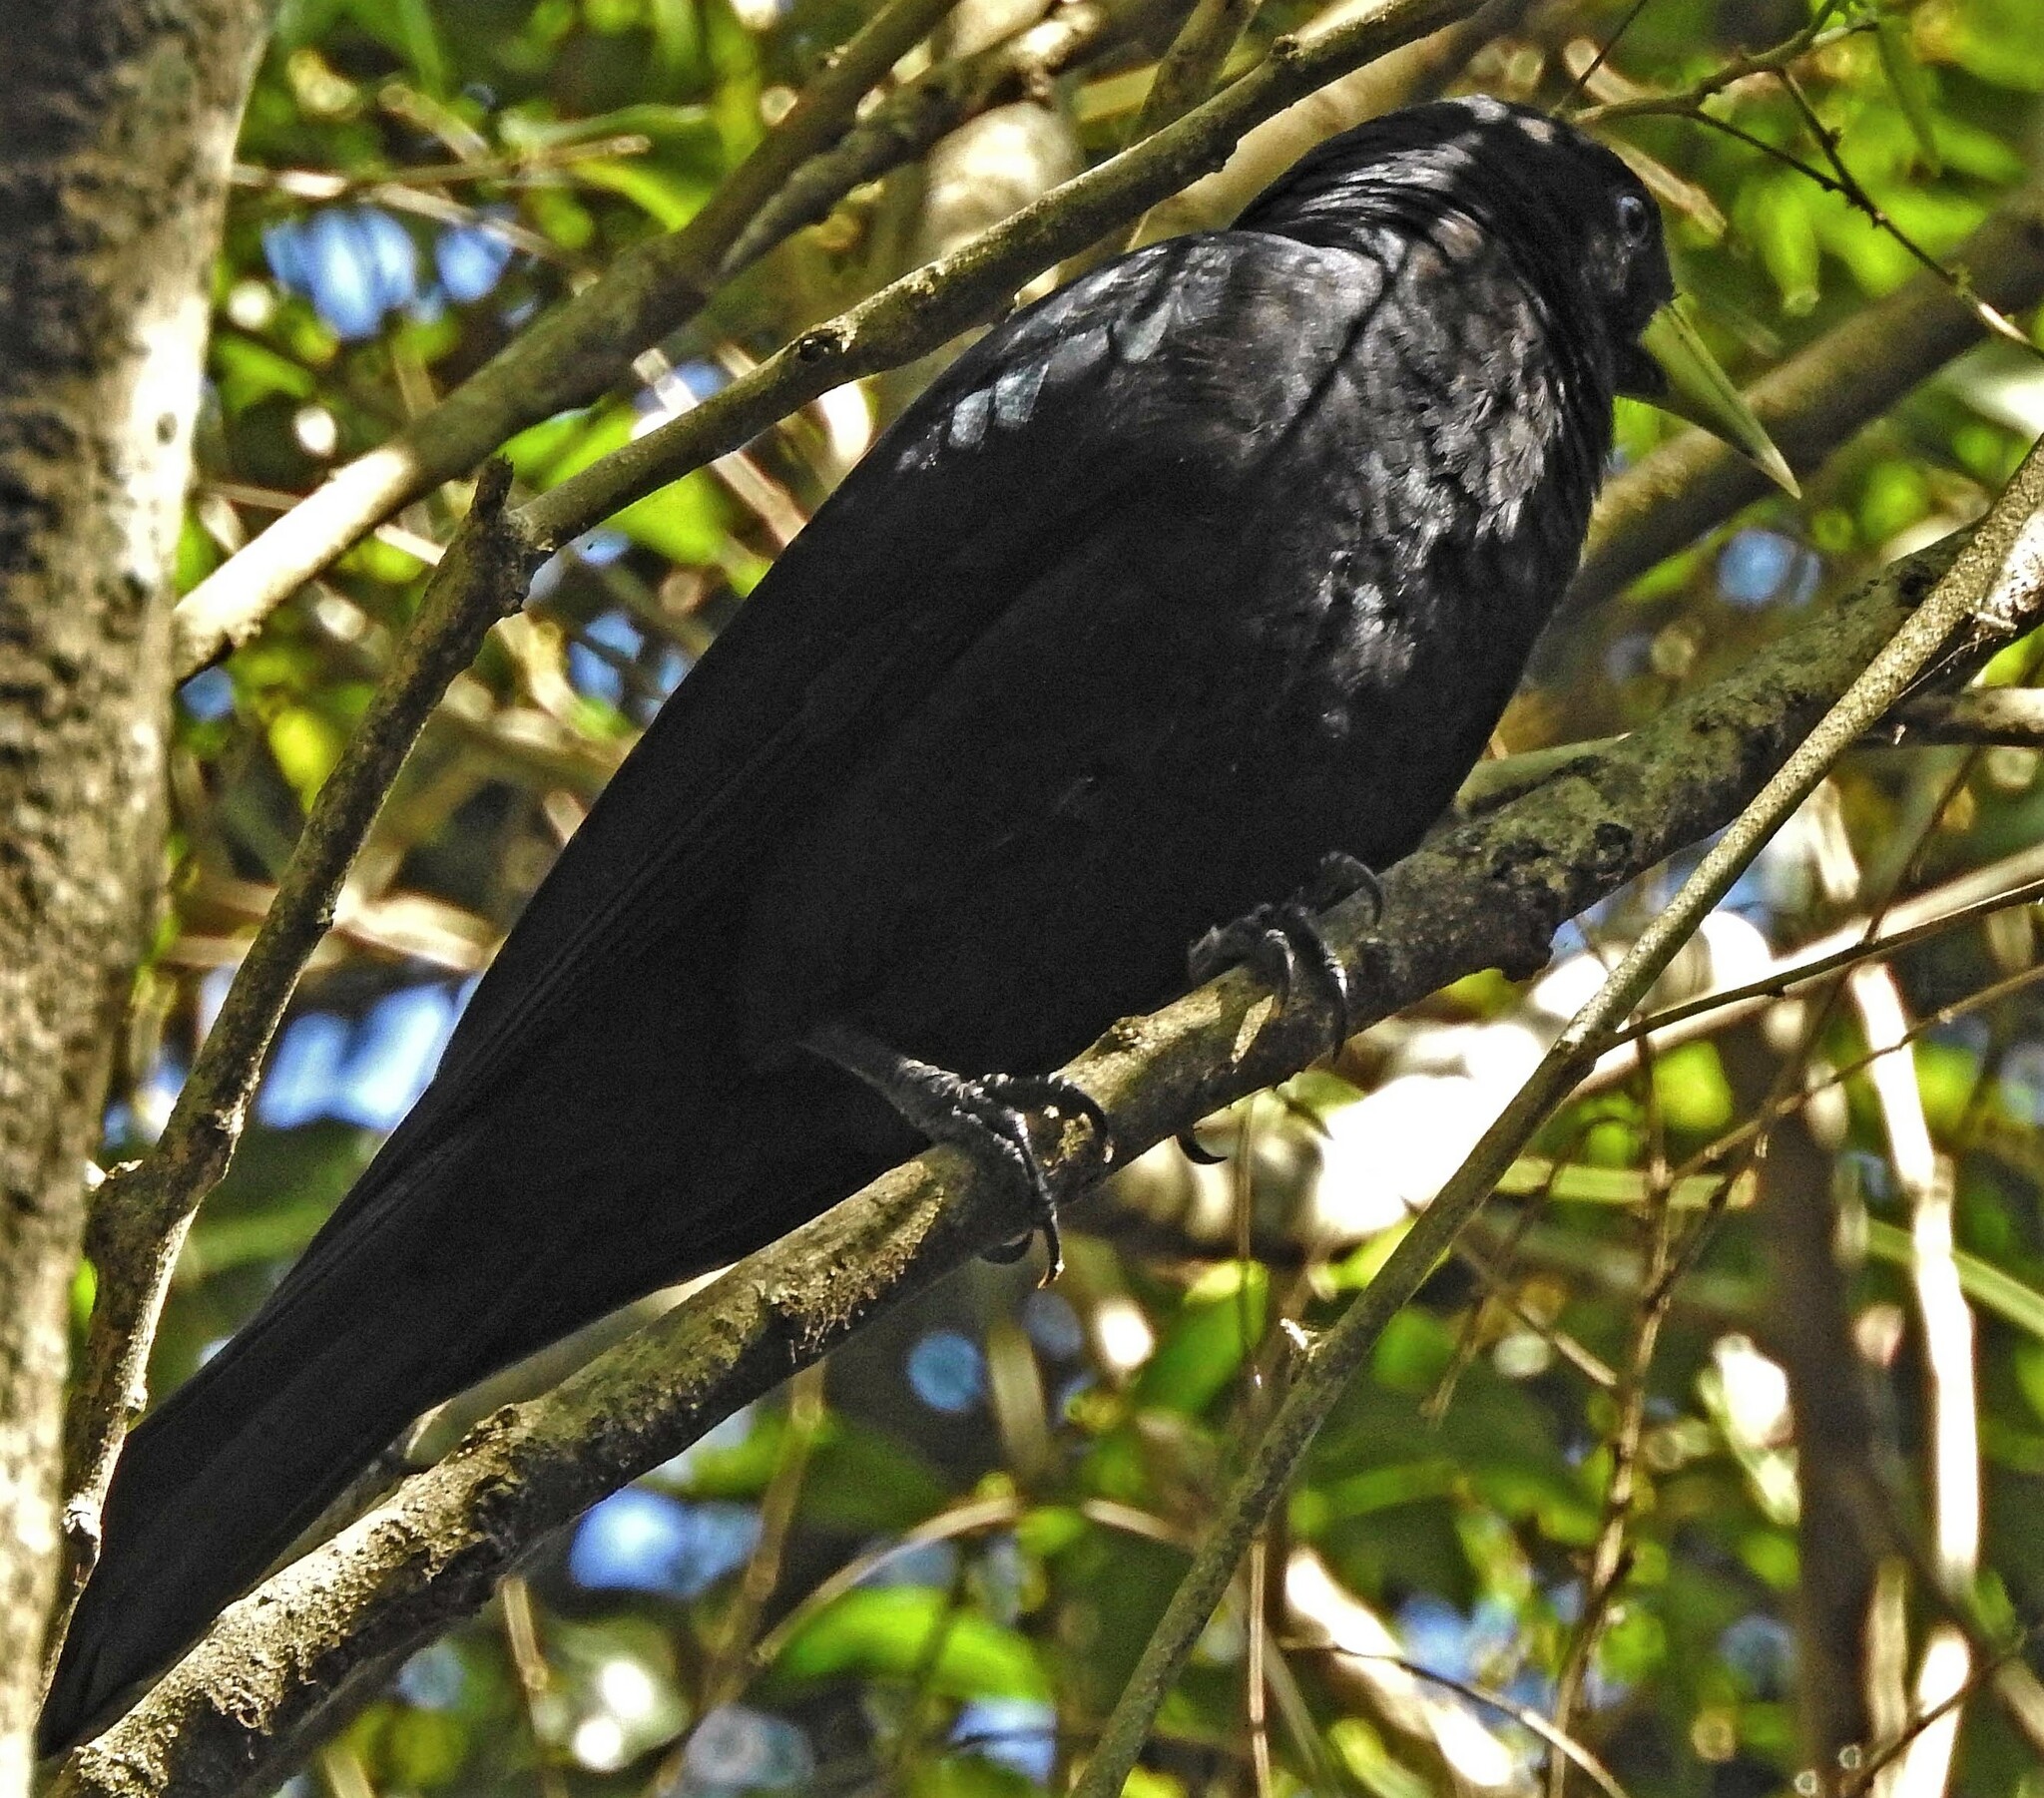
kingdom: Animalia
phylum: Chordata
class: Aves
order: Passeriformes
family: Icteridae
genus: Cacicus
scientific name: Cacicus haemorrhous
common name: Red-rumped cacique
